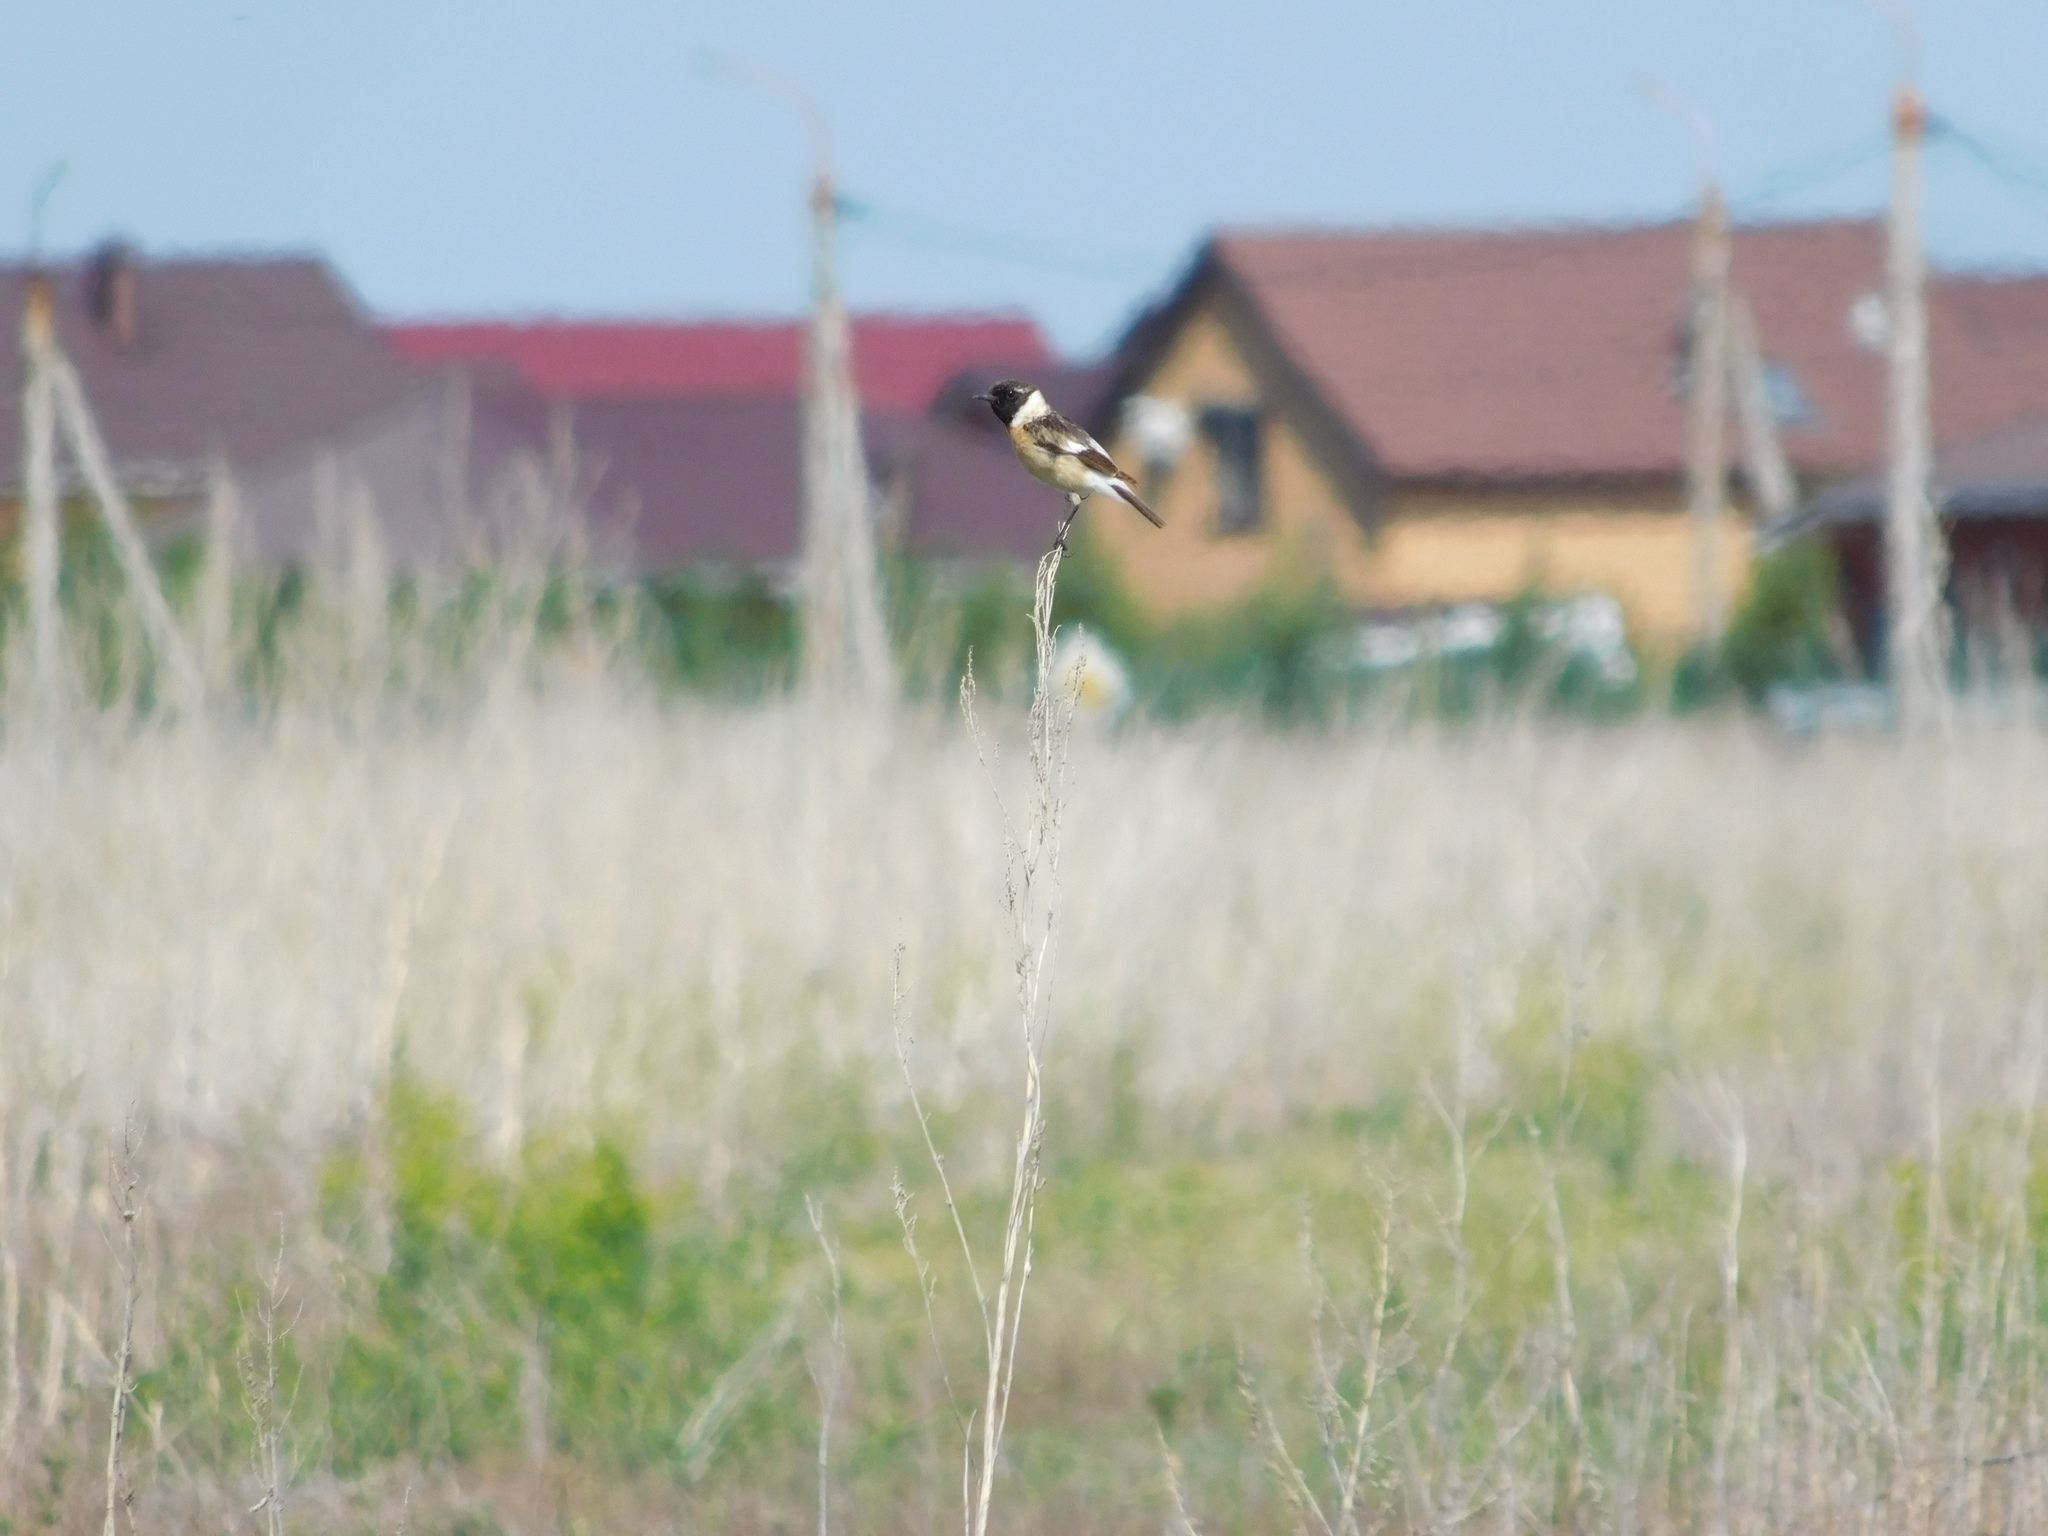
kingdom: Animalia
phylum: Chordata
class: Aves
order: Passeriformes
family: Muscicapidae
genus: Saxicola
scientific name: Saxicola maurus
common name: Siberian stonechat
